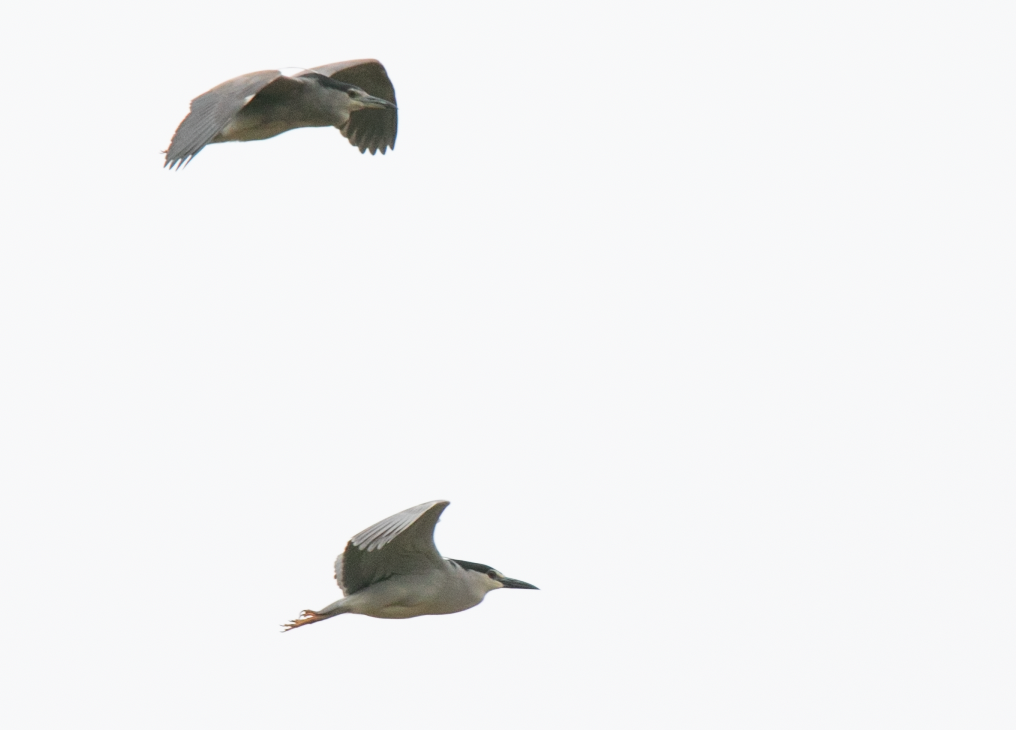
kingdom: Animalia
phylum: Chordata
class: Aves
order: Pelecaniformes
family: Ardeidae
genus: Nycticorax
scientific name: Nycticorax nycticorax
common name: Black-crowned night heron
